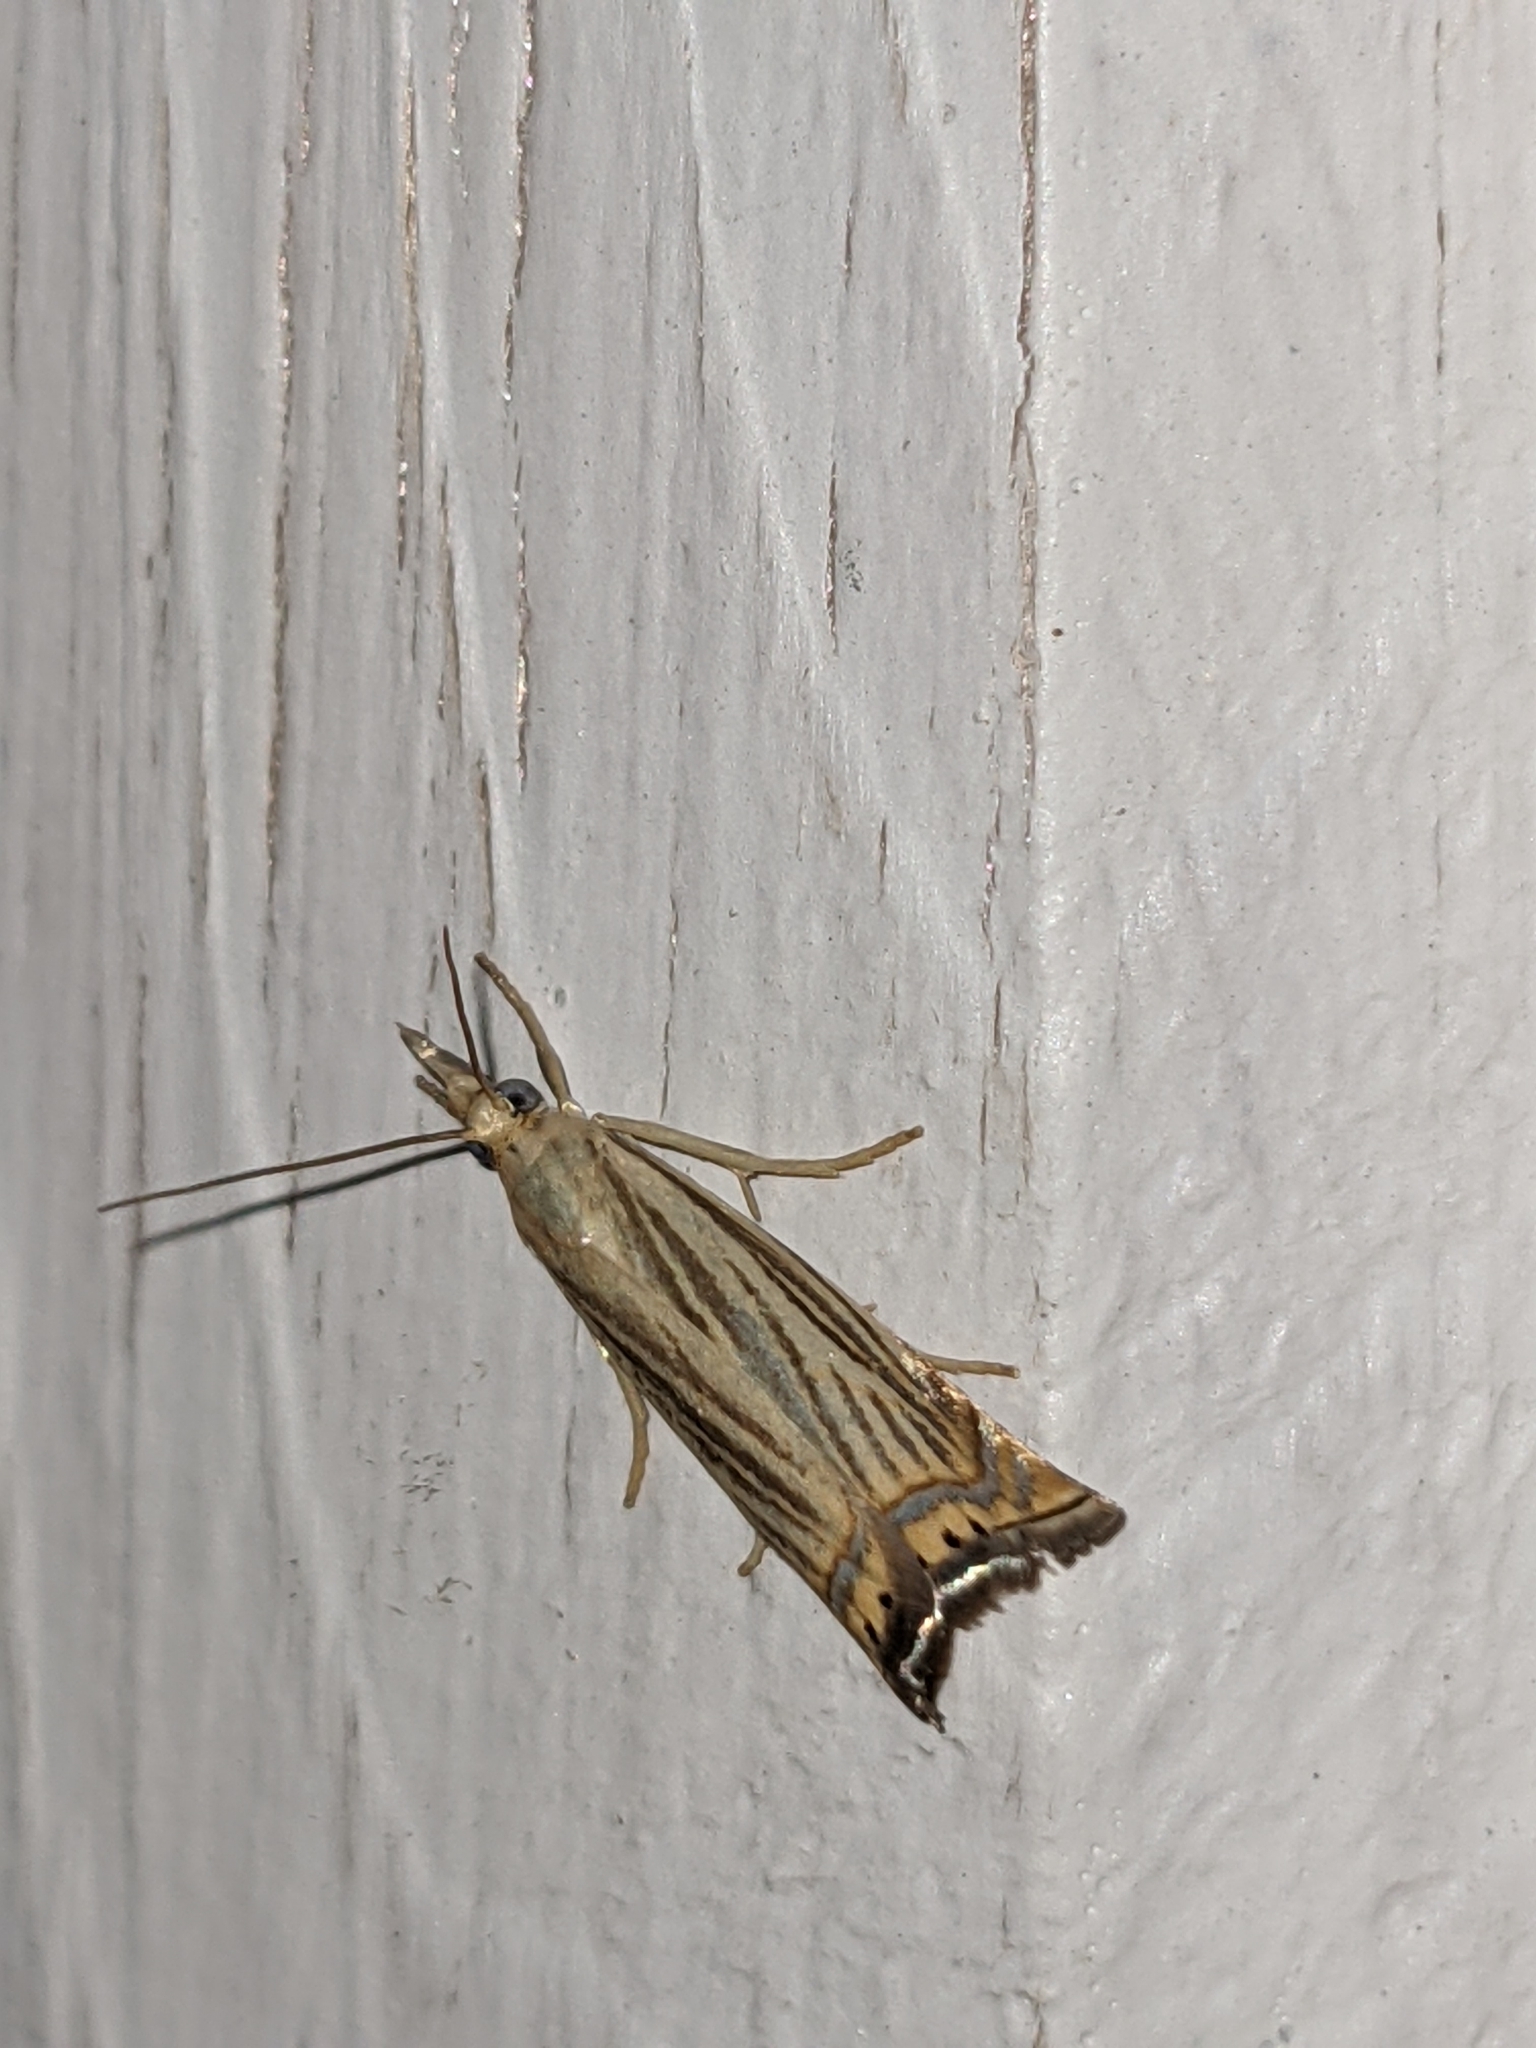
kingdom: Animalia
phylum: Arthropoda
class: Insecta
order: Lepidoptera
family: Crambidae
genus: Chrysoteuchia
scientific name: Chrysoteuchia topiarius
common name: Topiary grass-veneer
